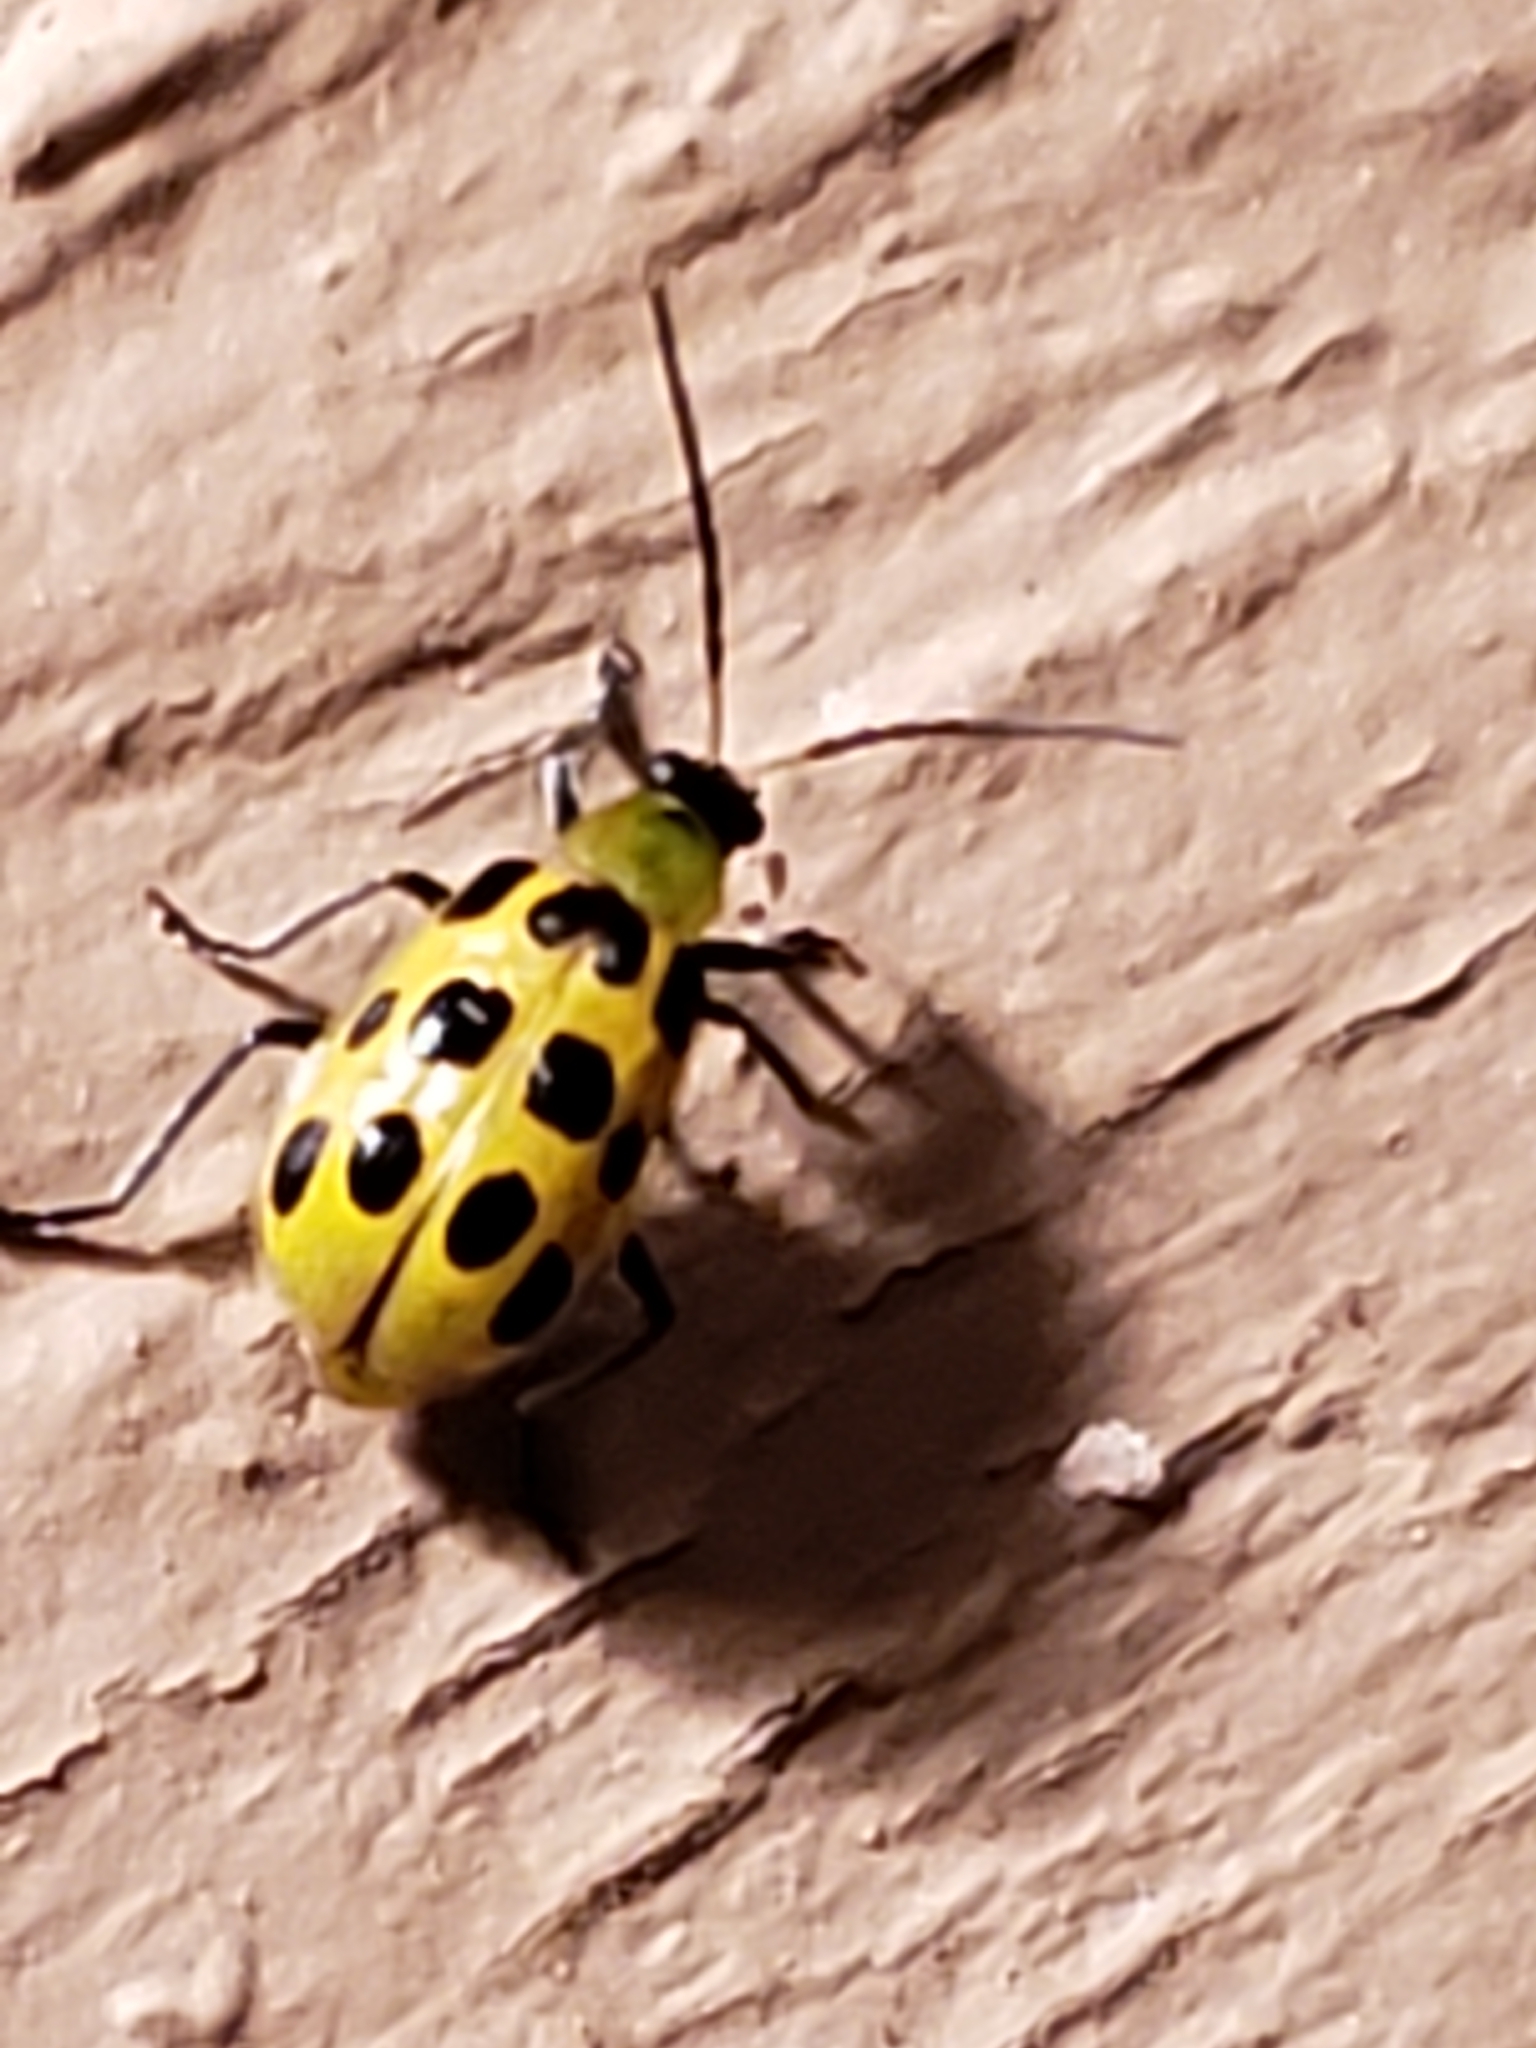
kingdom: Animalia
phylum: Arthropoda
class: Insecta
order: Coleoptera
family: Chrysomelidae
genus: Diabrotica
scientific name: Diabrotica undecimpunctata
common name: Spotted cucumber beetle
